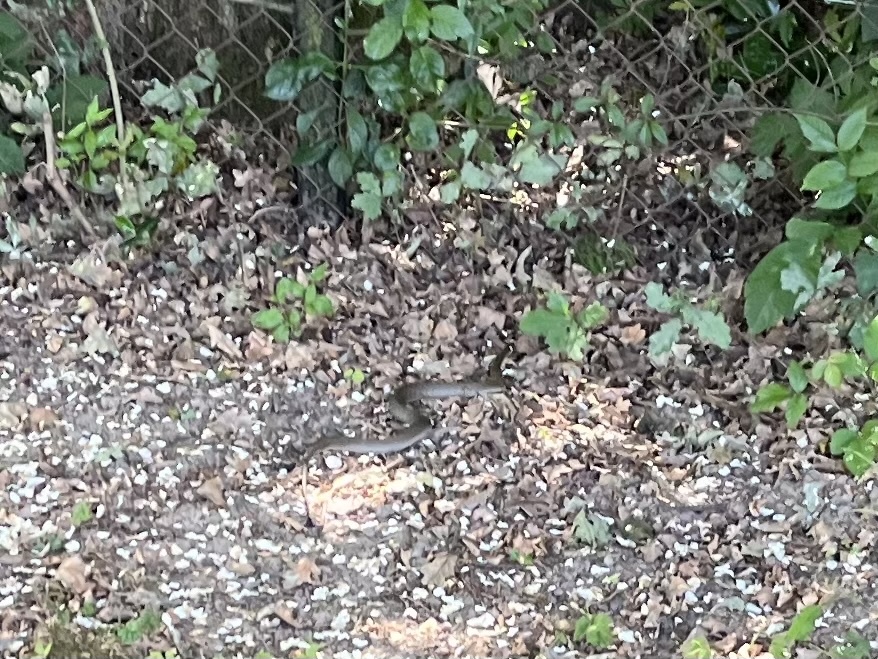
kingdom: Animalia
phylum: Chordata
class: Squamata
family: Colubridae
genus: Natrix
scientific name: Natrix natrix
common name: Grass snake
